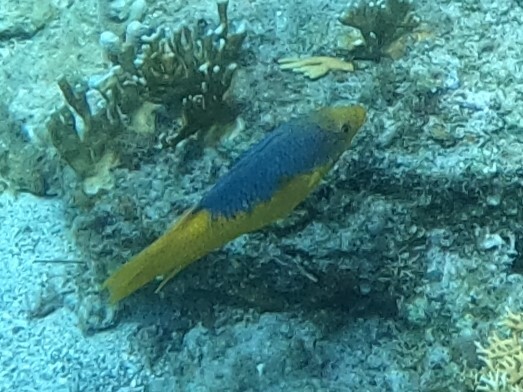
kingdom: Animalia
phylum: Chordata
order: Perciformes
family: Labridae
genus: Bodianus
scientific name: Bodianus rufus
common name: Spanish hogfish
